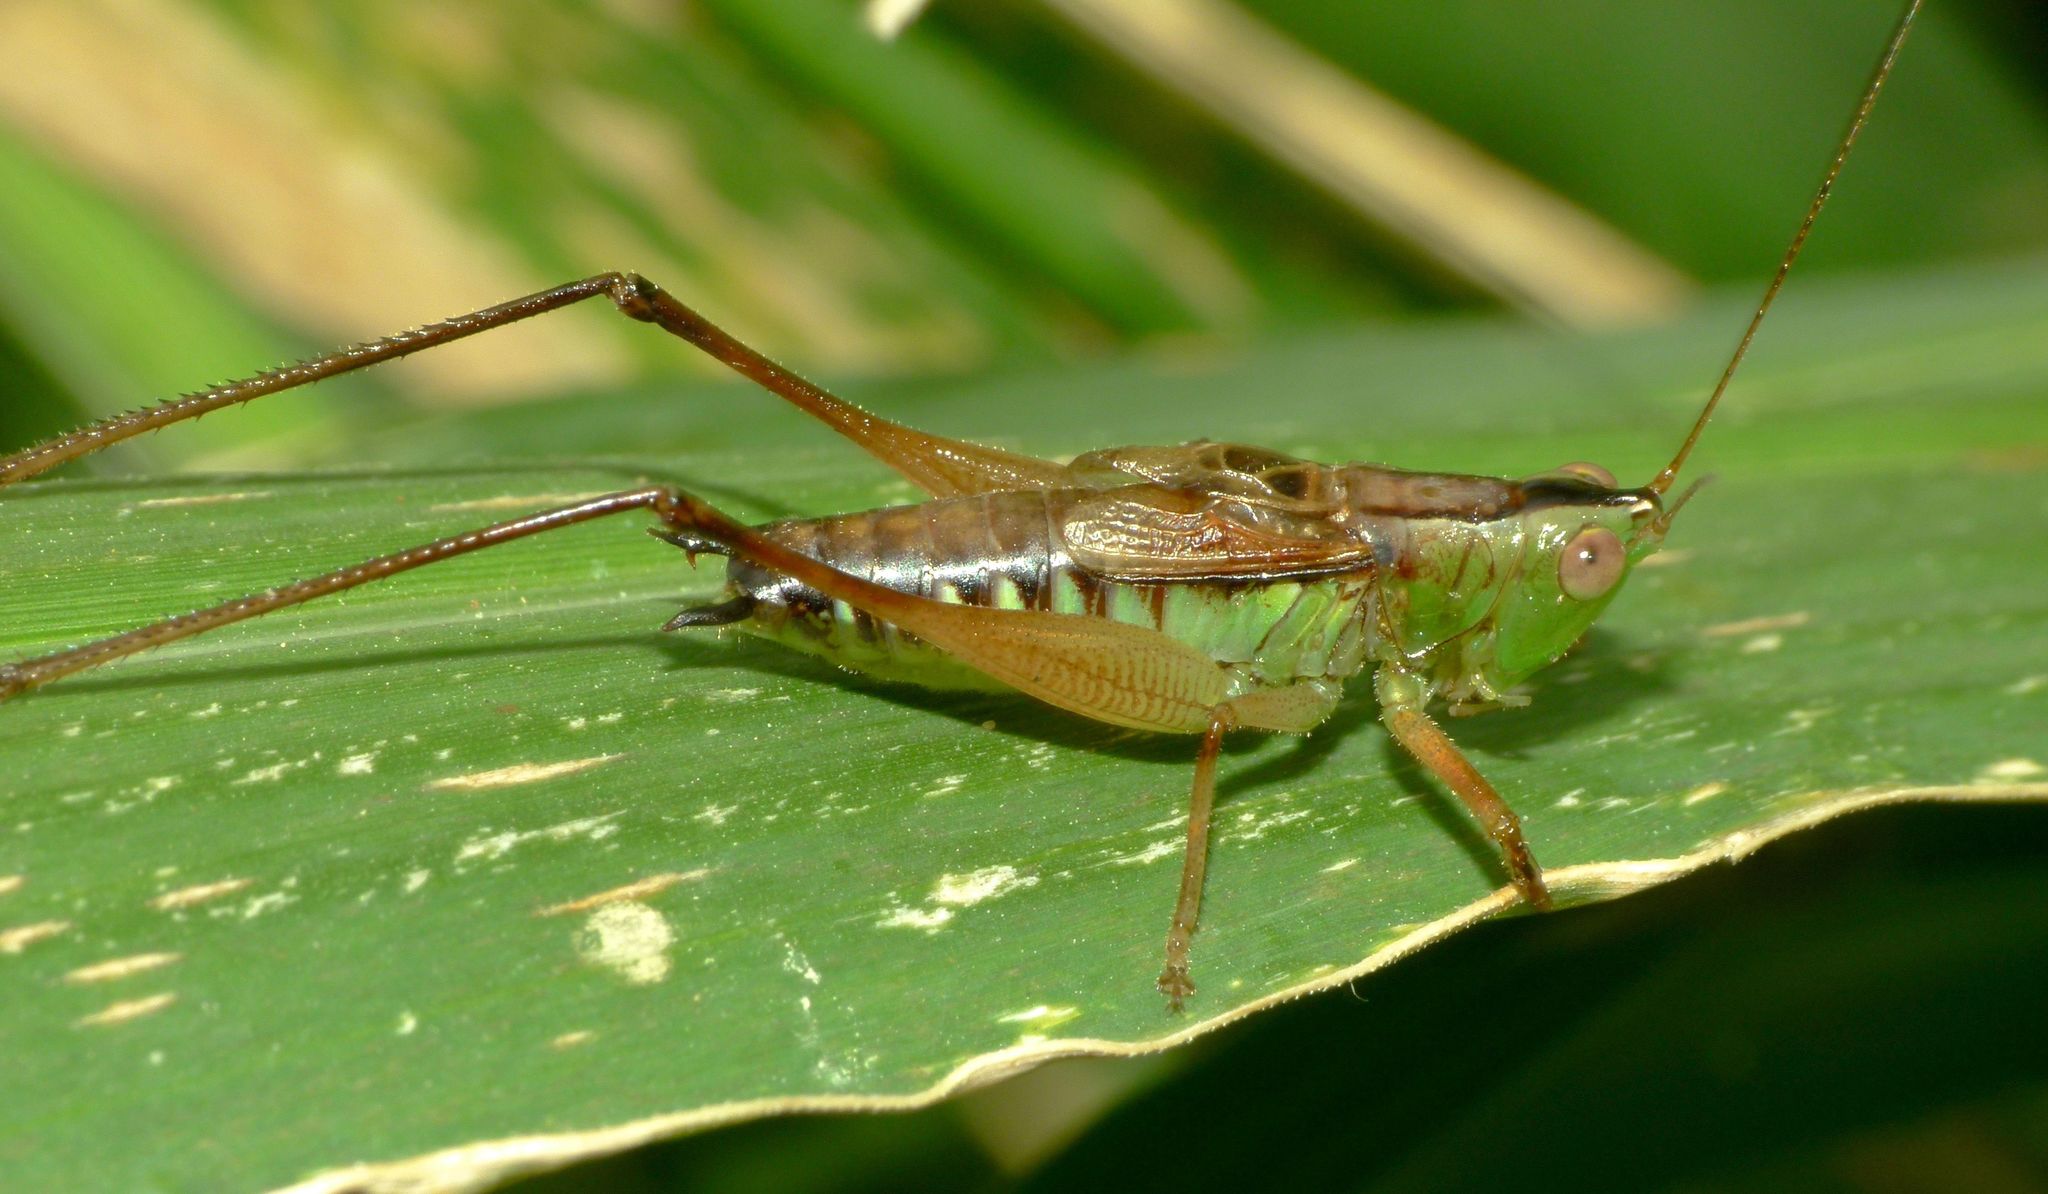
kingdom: Animalia
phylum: Arthropoda
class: Insecta
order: Orthoptera
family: Tettigoniidae
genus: Conocephalus
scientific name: Conocephalus semivittatus
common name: Blackish meadow katydid
